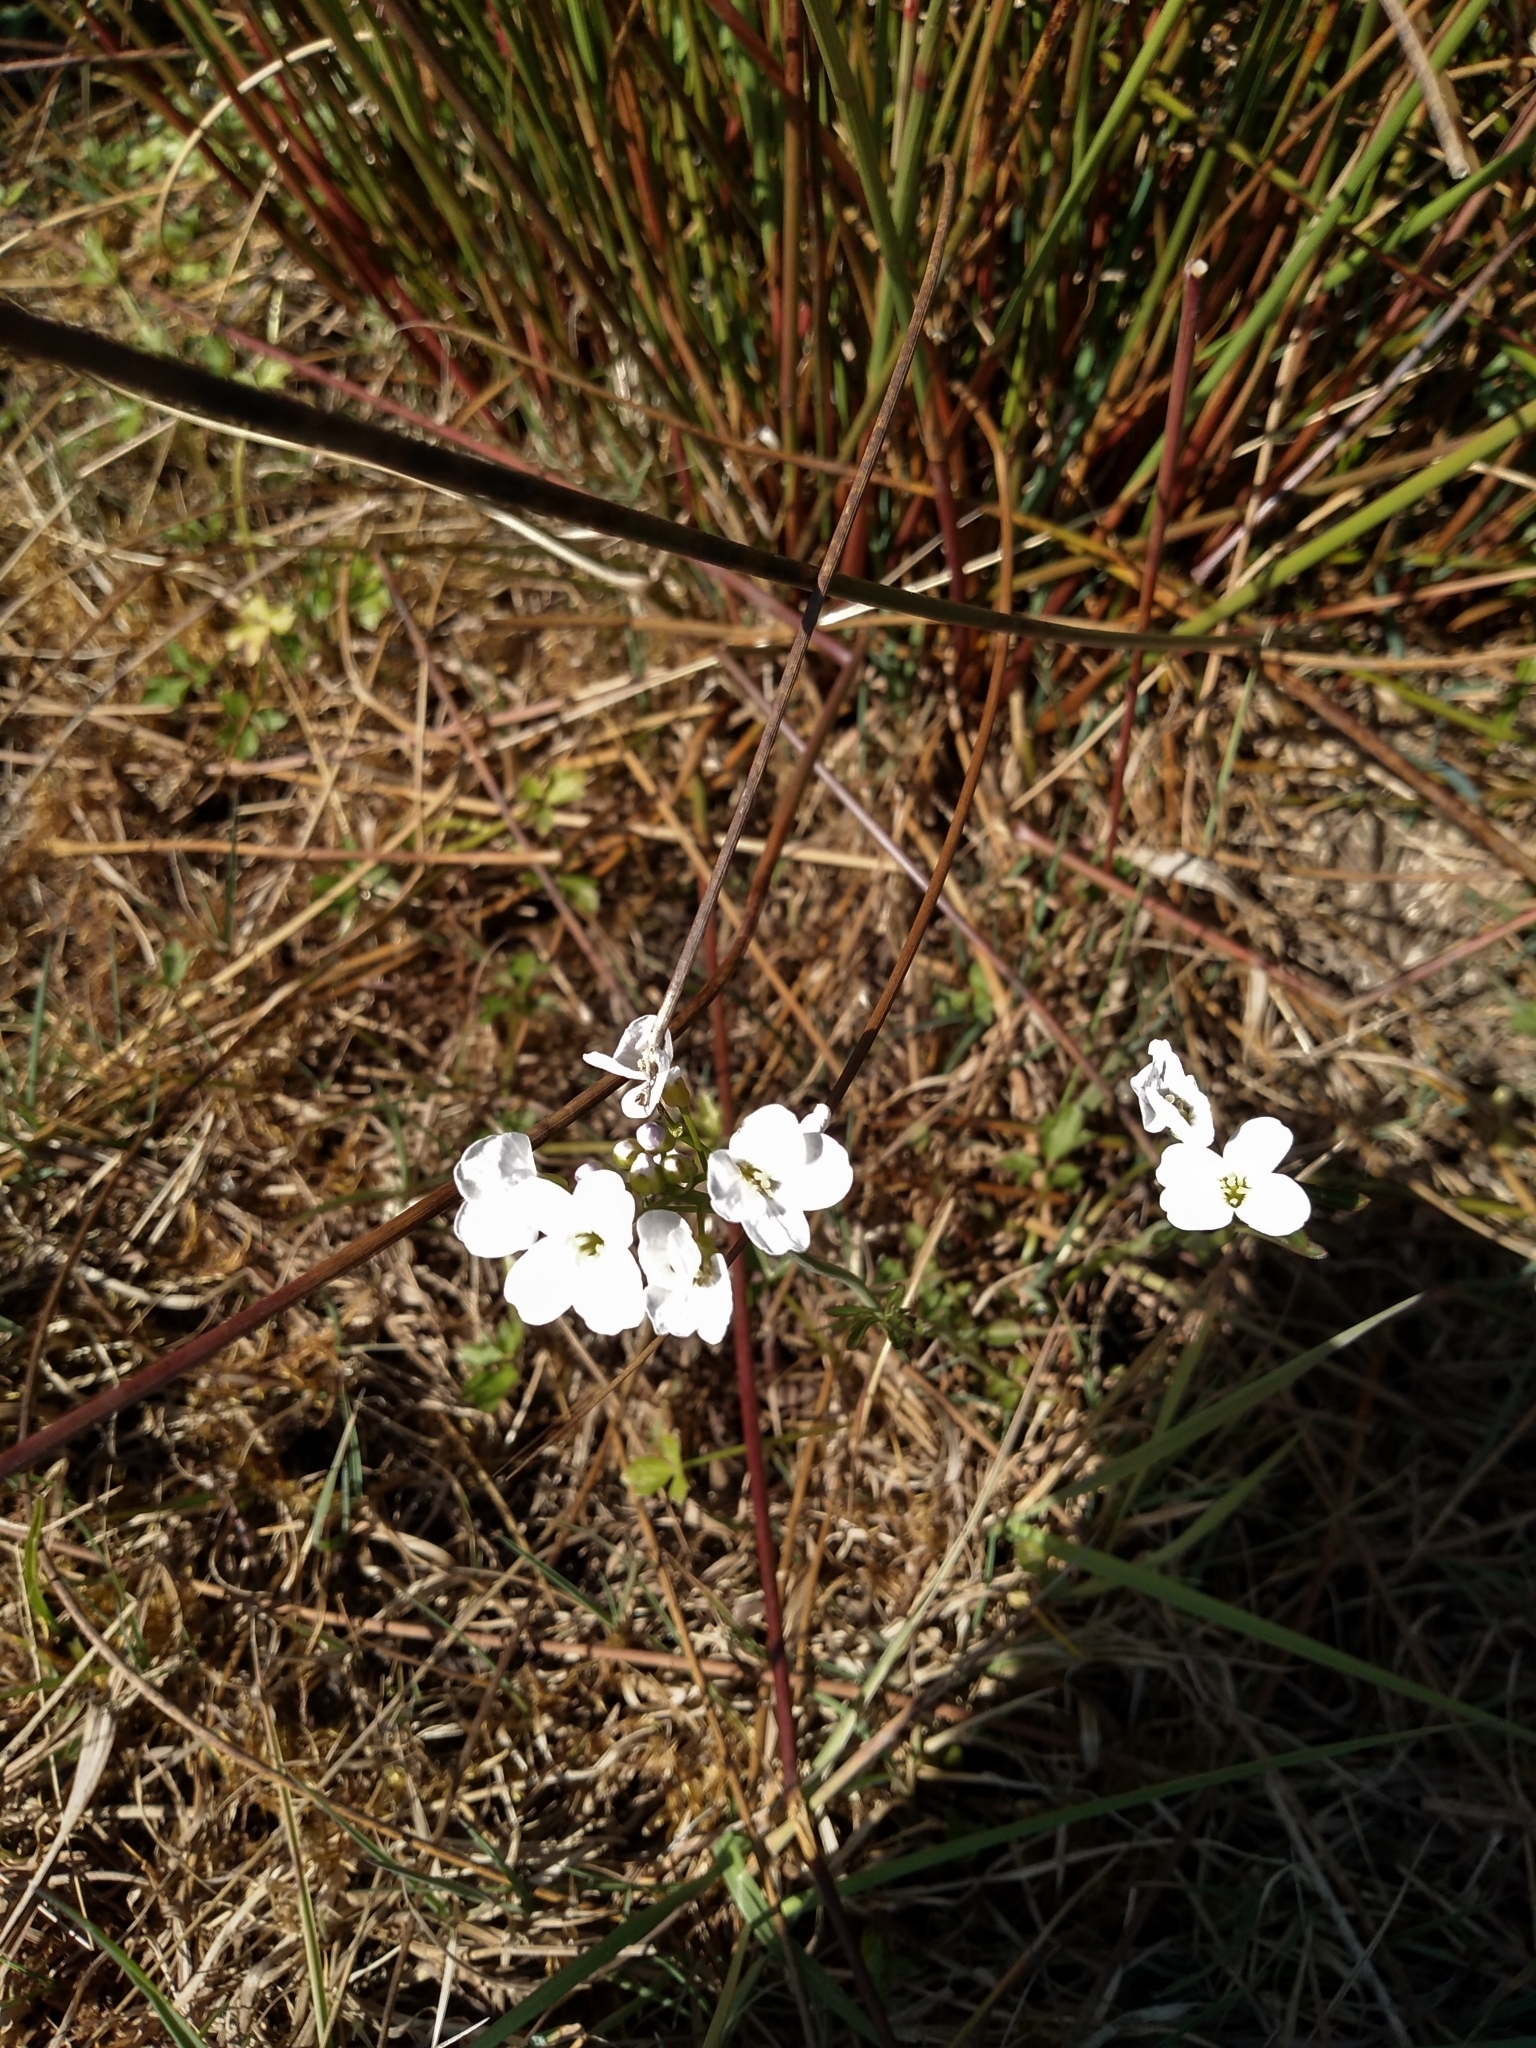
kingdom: Plantae
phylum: Tracheophyta
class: Magnoliopsida
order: Brassicales
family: Brassicaceae
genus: Cardamine
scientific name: Cardamine pratensis
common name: Cuckoo flower
